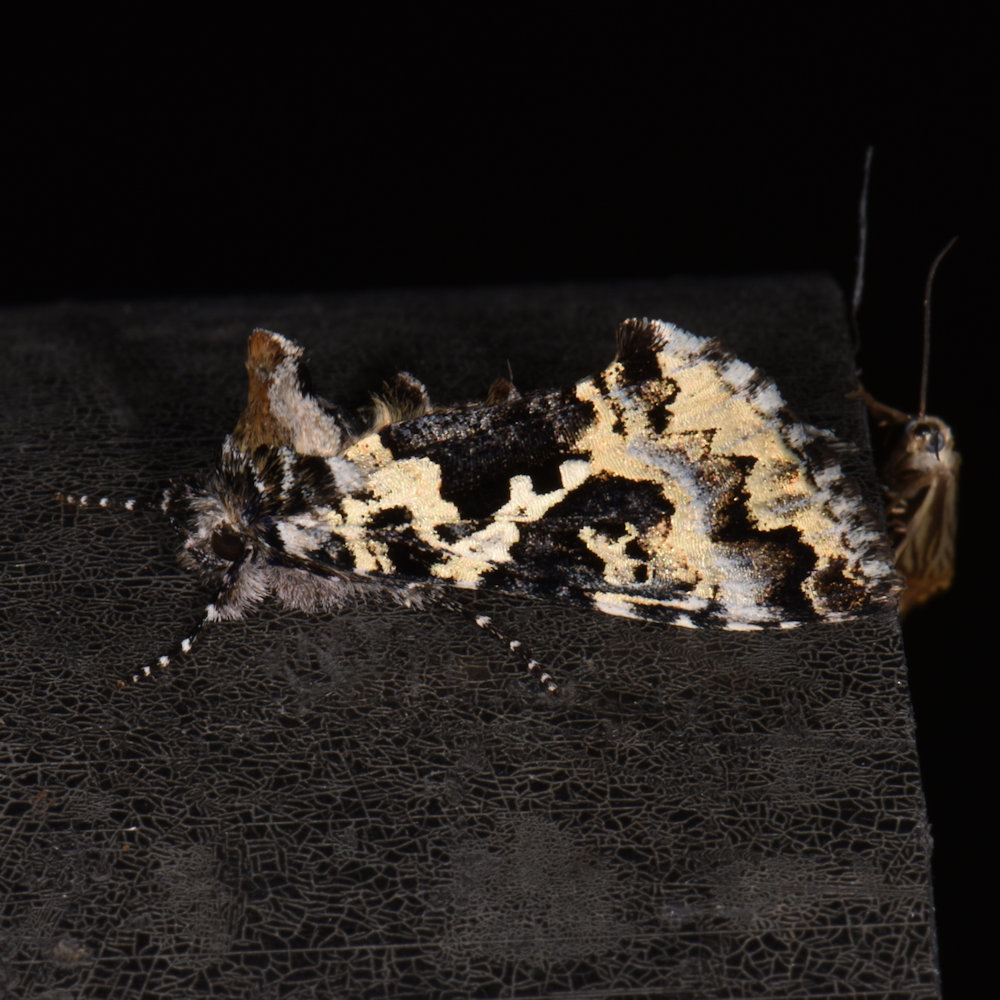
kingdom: Animalia
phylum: Arthropoda
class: Insecta
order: Lepidoptera
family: Noctuidae
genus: Syngrapha
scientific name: Syngrapha rectangula
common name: Angulated cutworm
